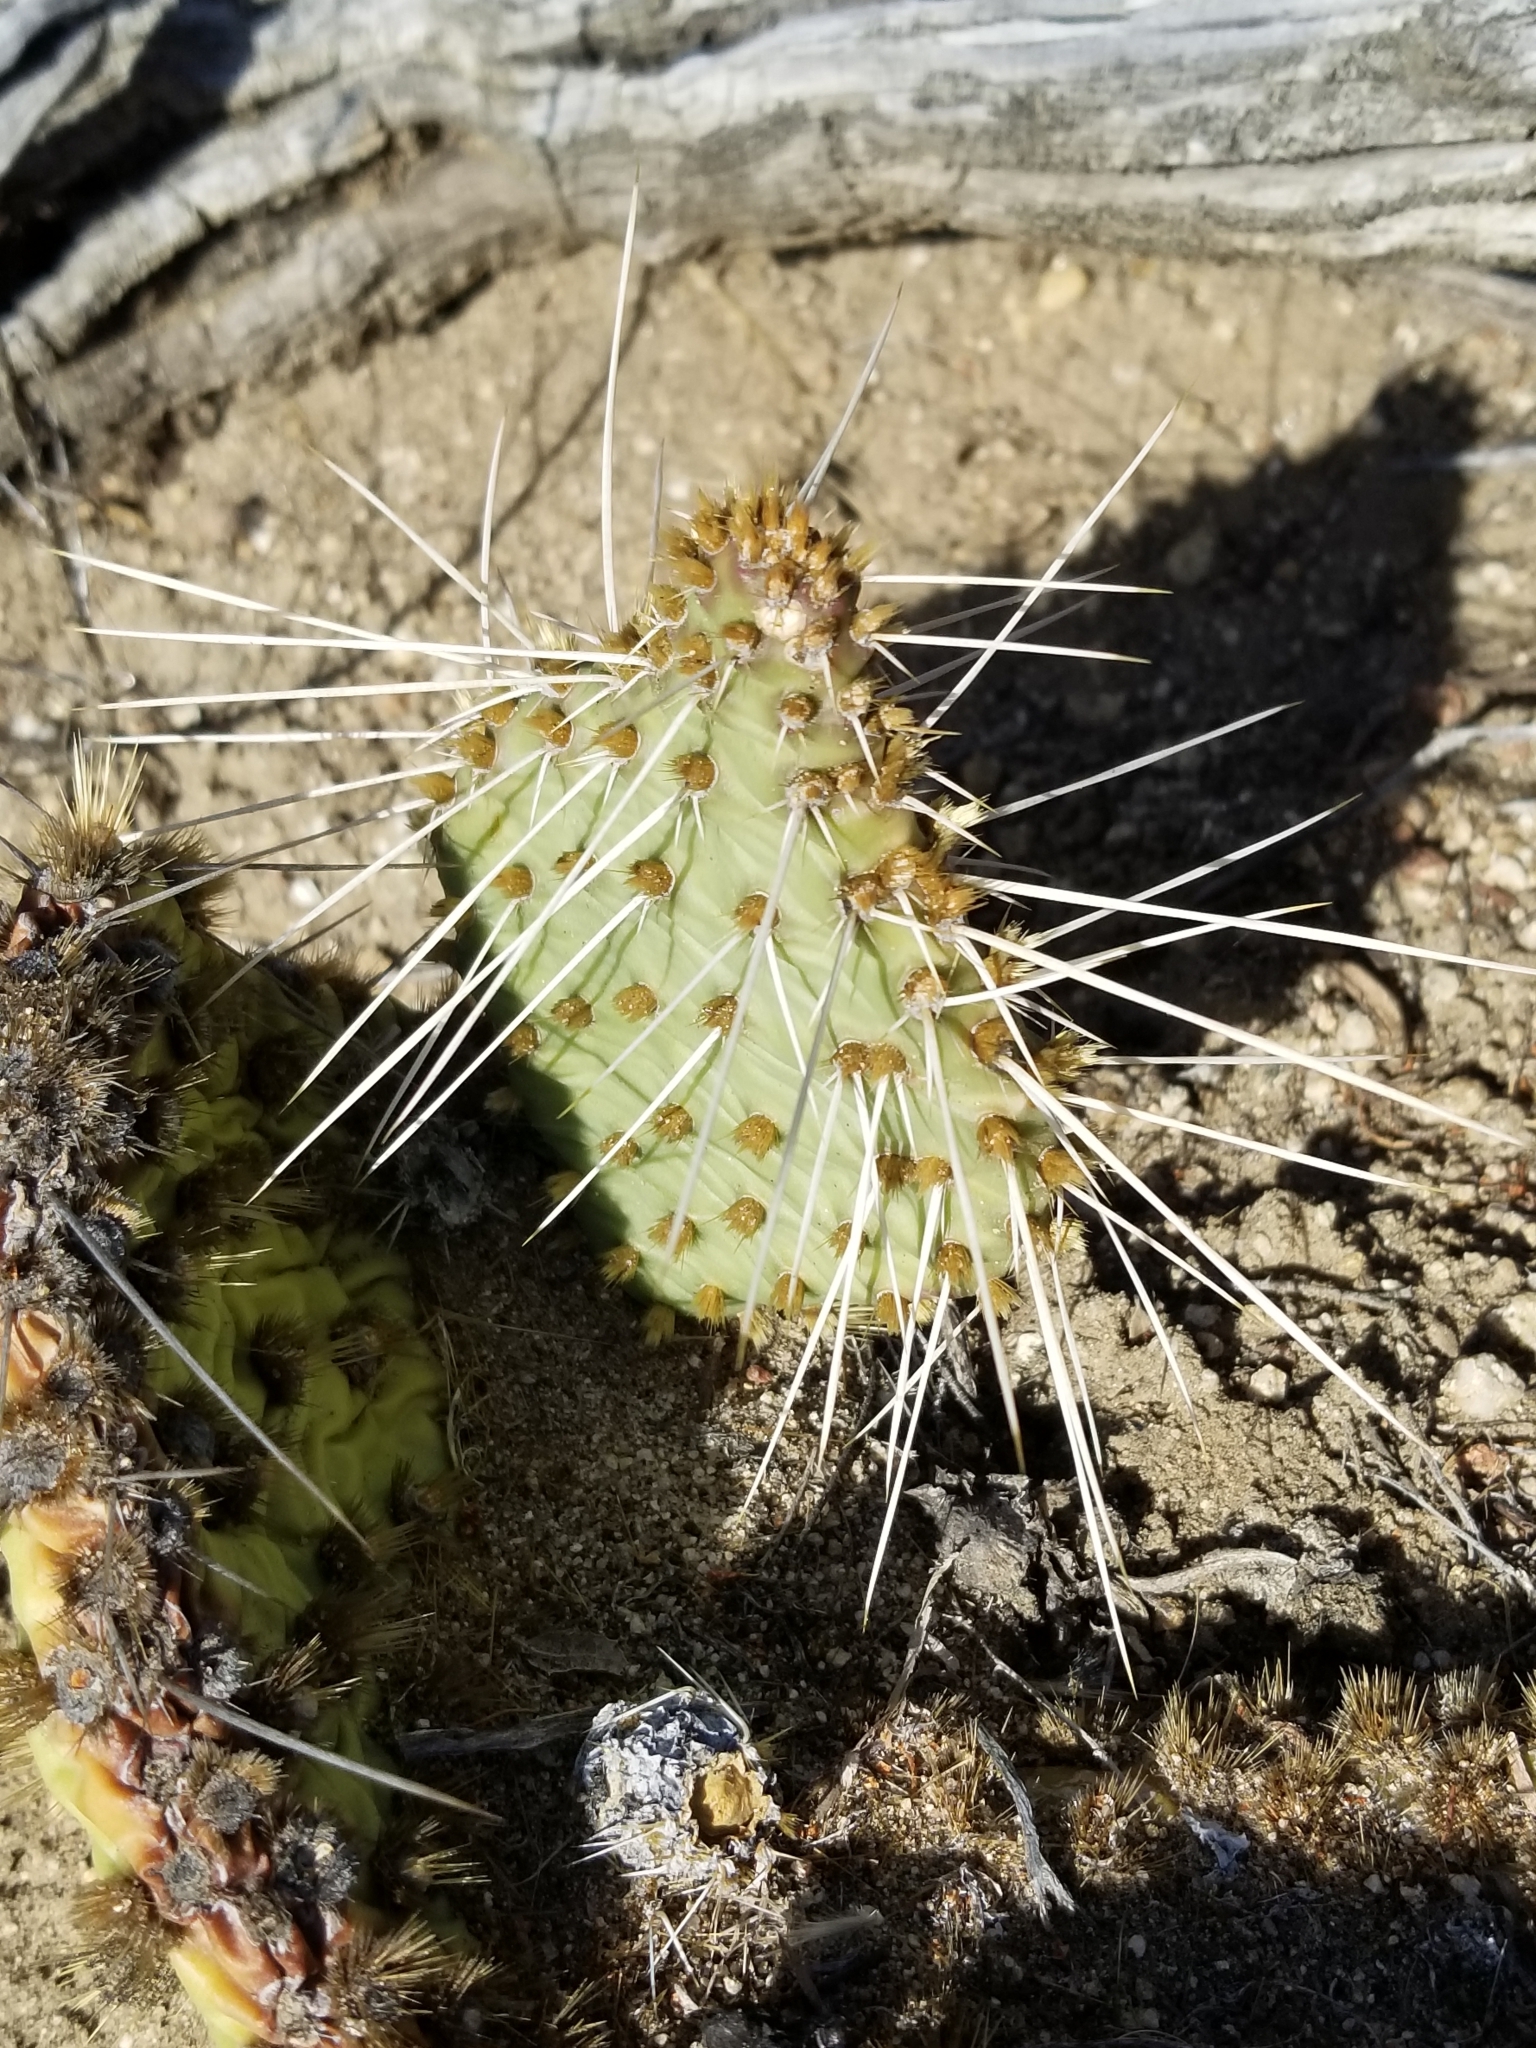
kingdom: Plantae
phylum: Tracheophyta
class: Magnoliopsida
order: Caryophyllales
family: Cactaceae
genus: Opuntia
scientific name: Opuntia polyacantha
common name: Plains prickly-pear
